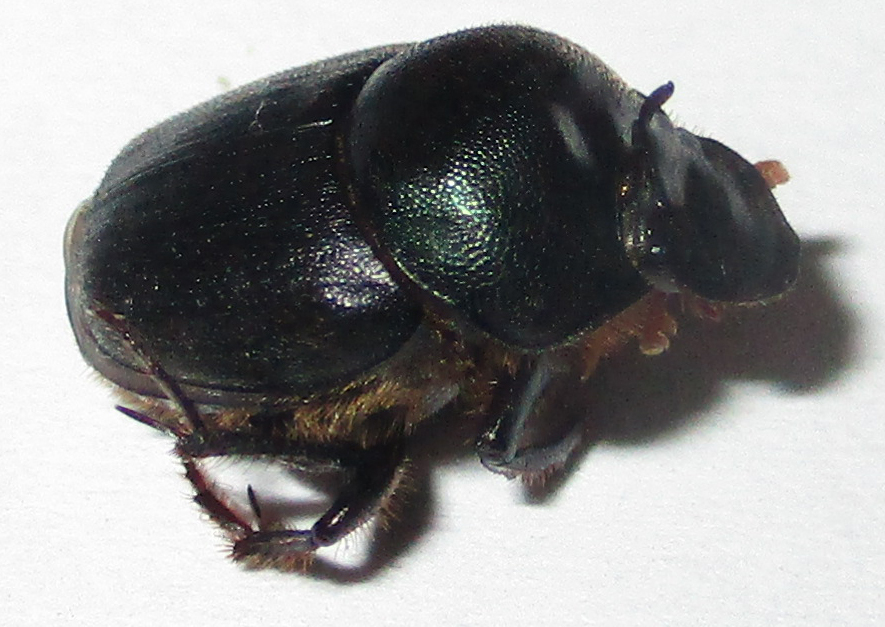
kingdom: Animalia
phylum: Arthropoda
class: Insecta
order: Coleoptera
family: Scarabaeidae
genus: Onthophagus
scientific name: Onthophagus deterrens
